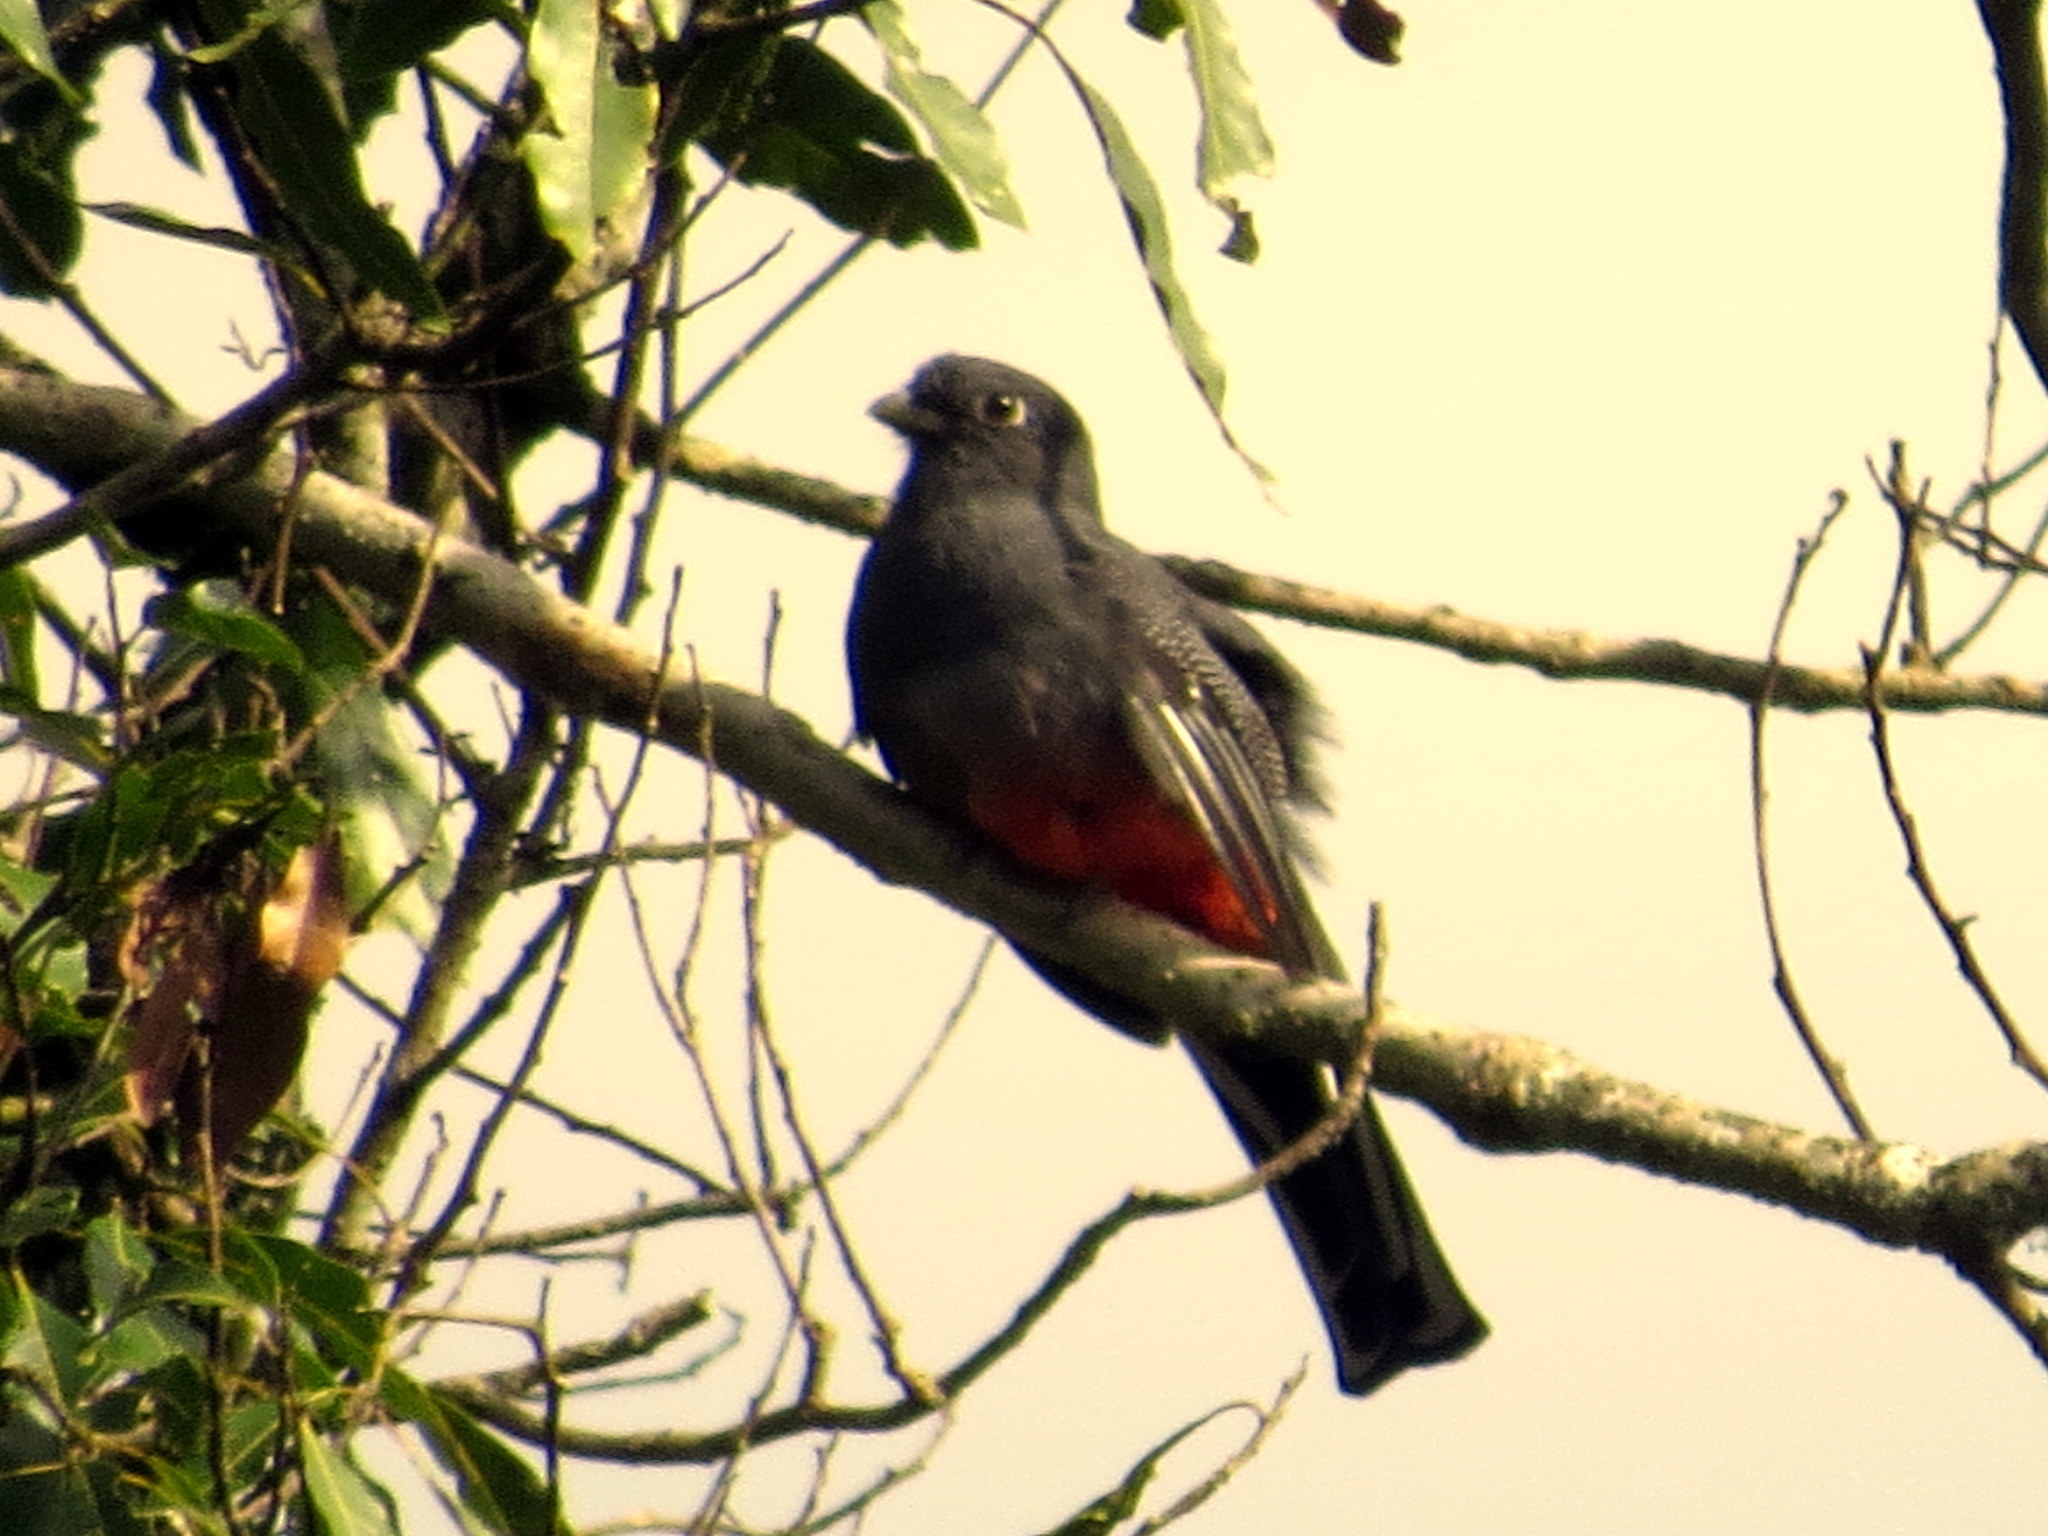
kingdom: Animalia
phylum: Chordata
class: Aves
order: Trogoniformes
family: Trogonidae
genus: Trogon
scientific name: Trogon surrucura
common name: Surucua trogon
